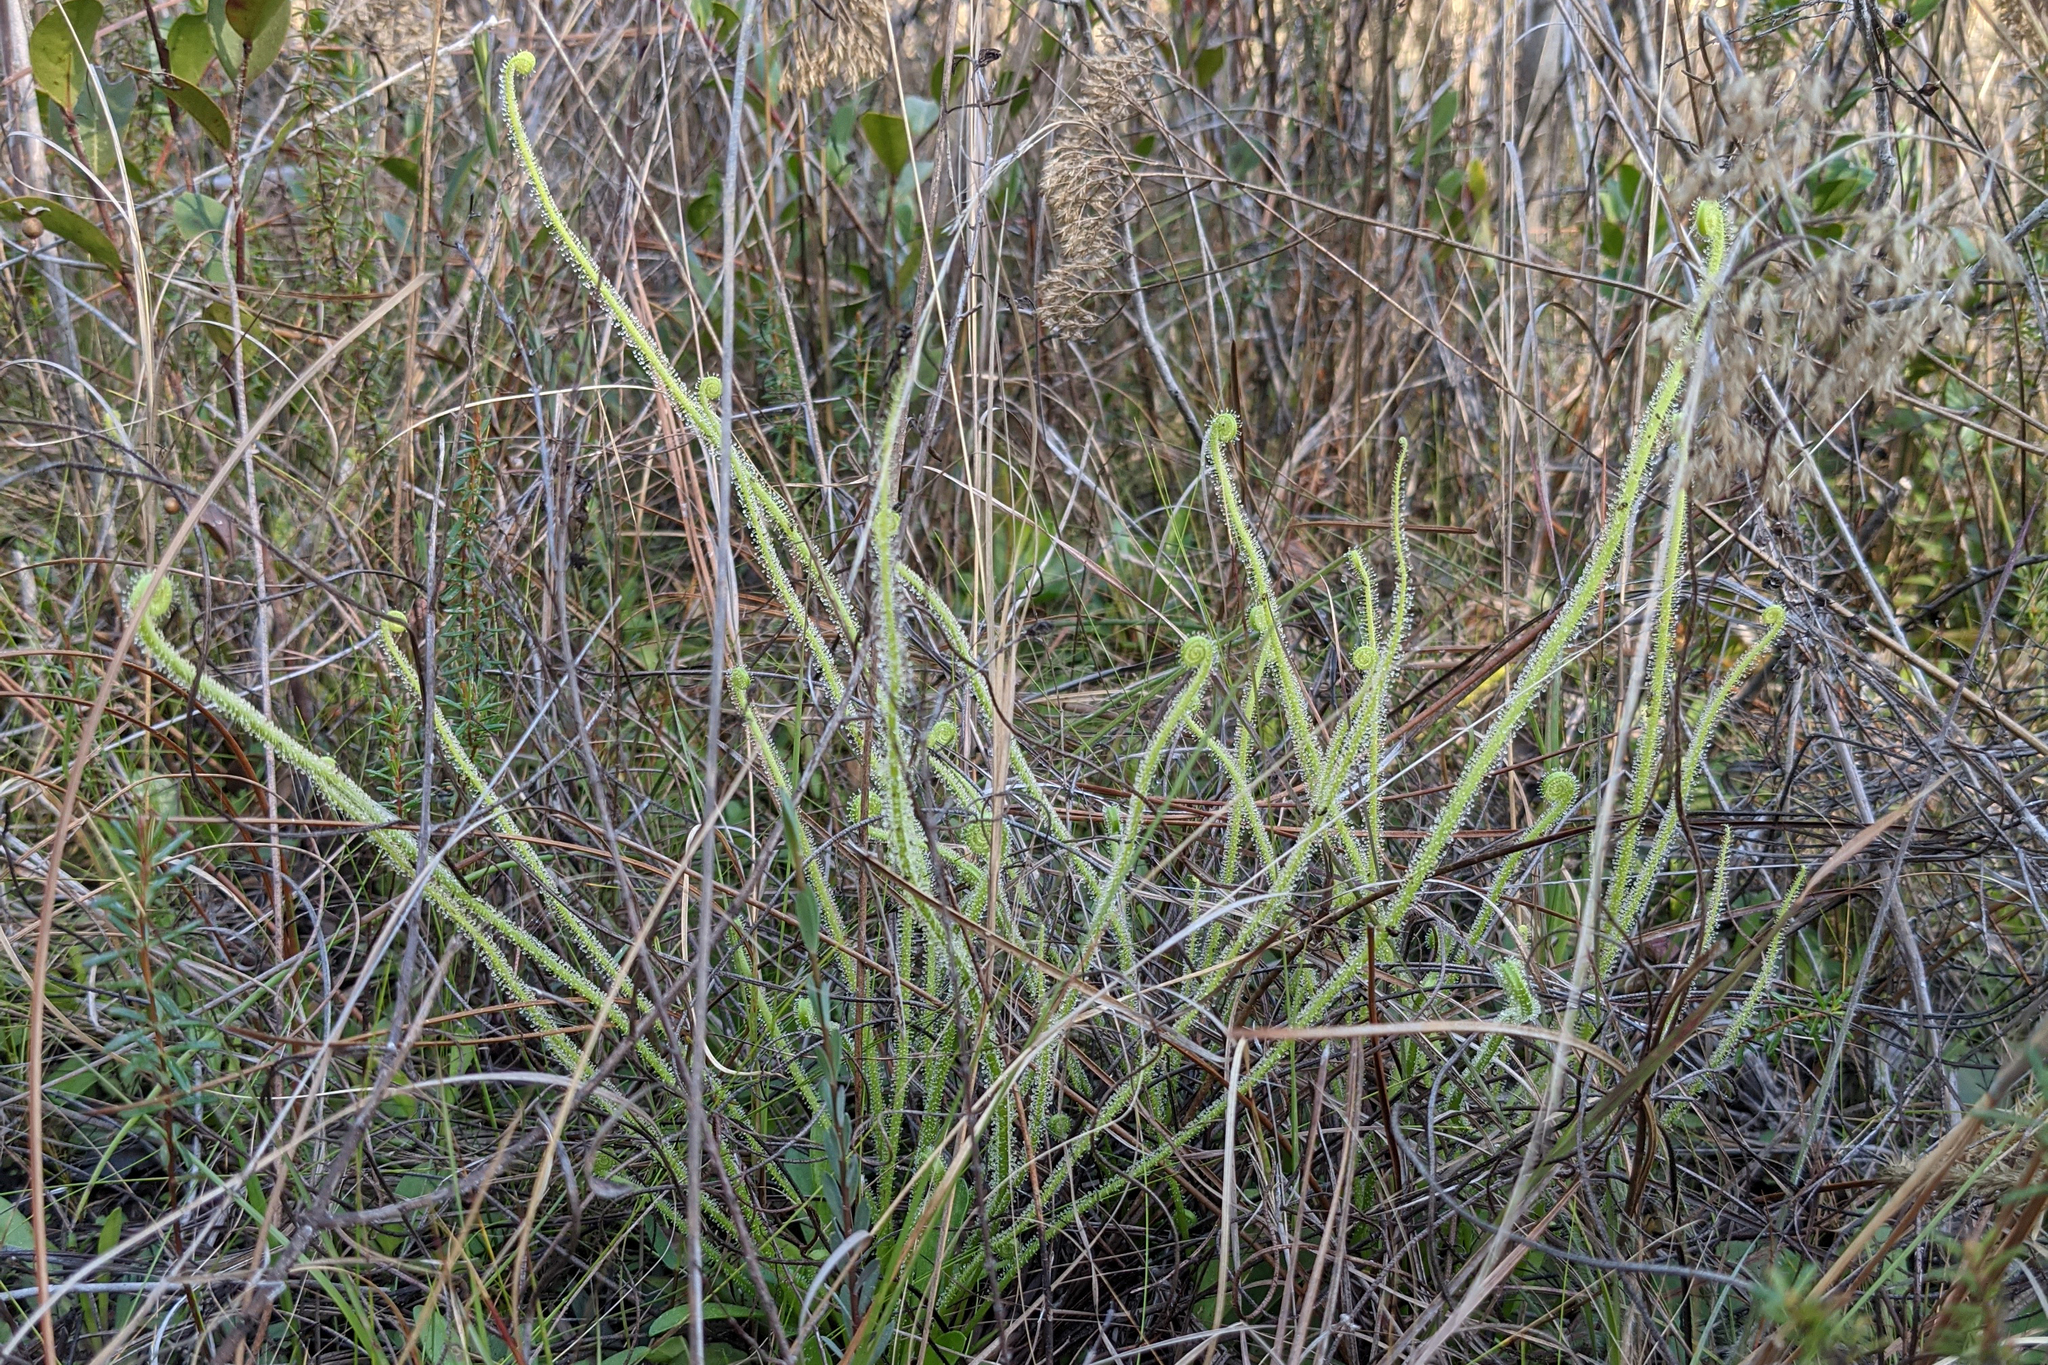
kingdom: Plantae
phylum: Tracheophyta
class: Magnoliopsida
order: Caryophyllales
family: Droseraceae
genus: Drosera
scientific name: Drosera filiformis
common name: Dew-thread
